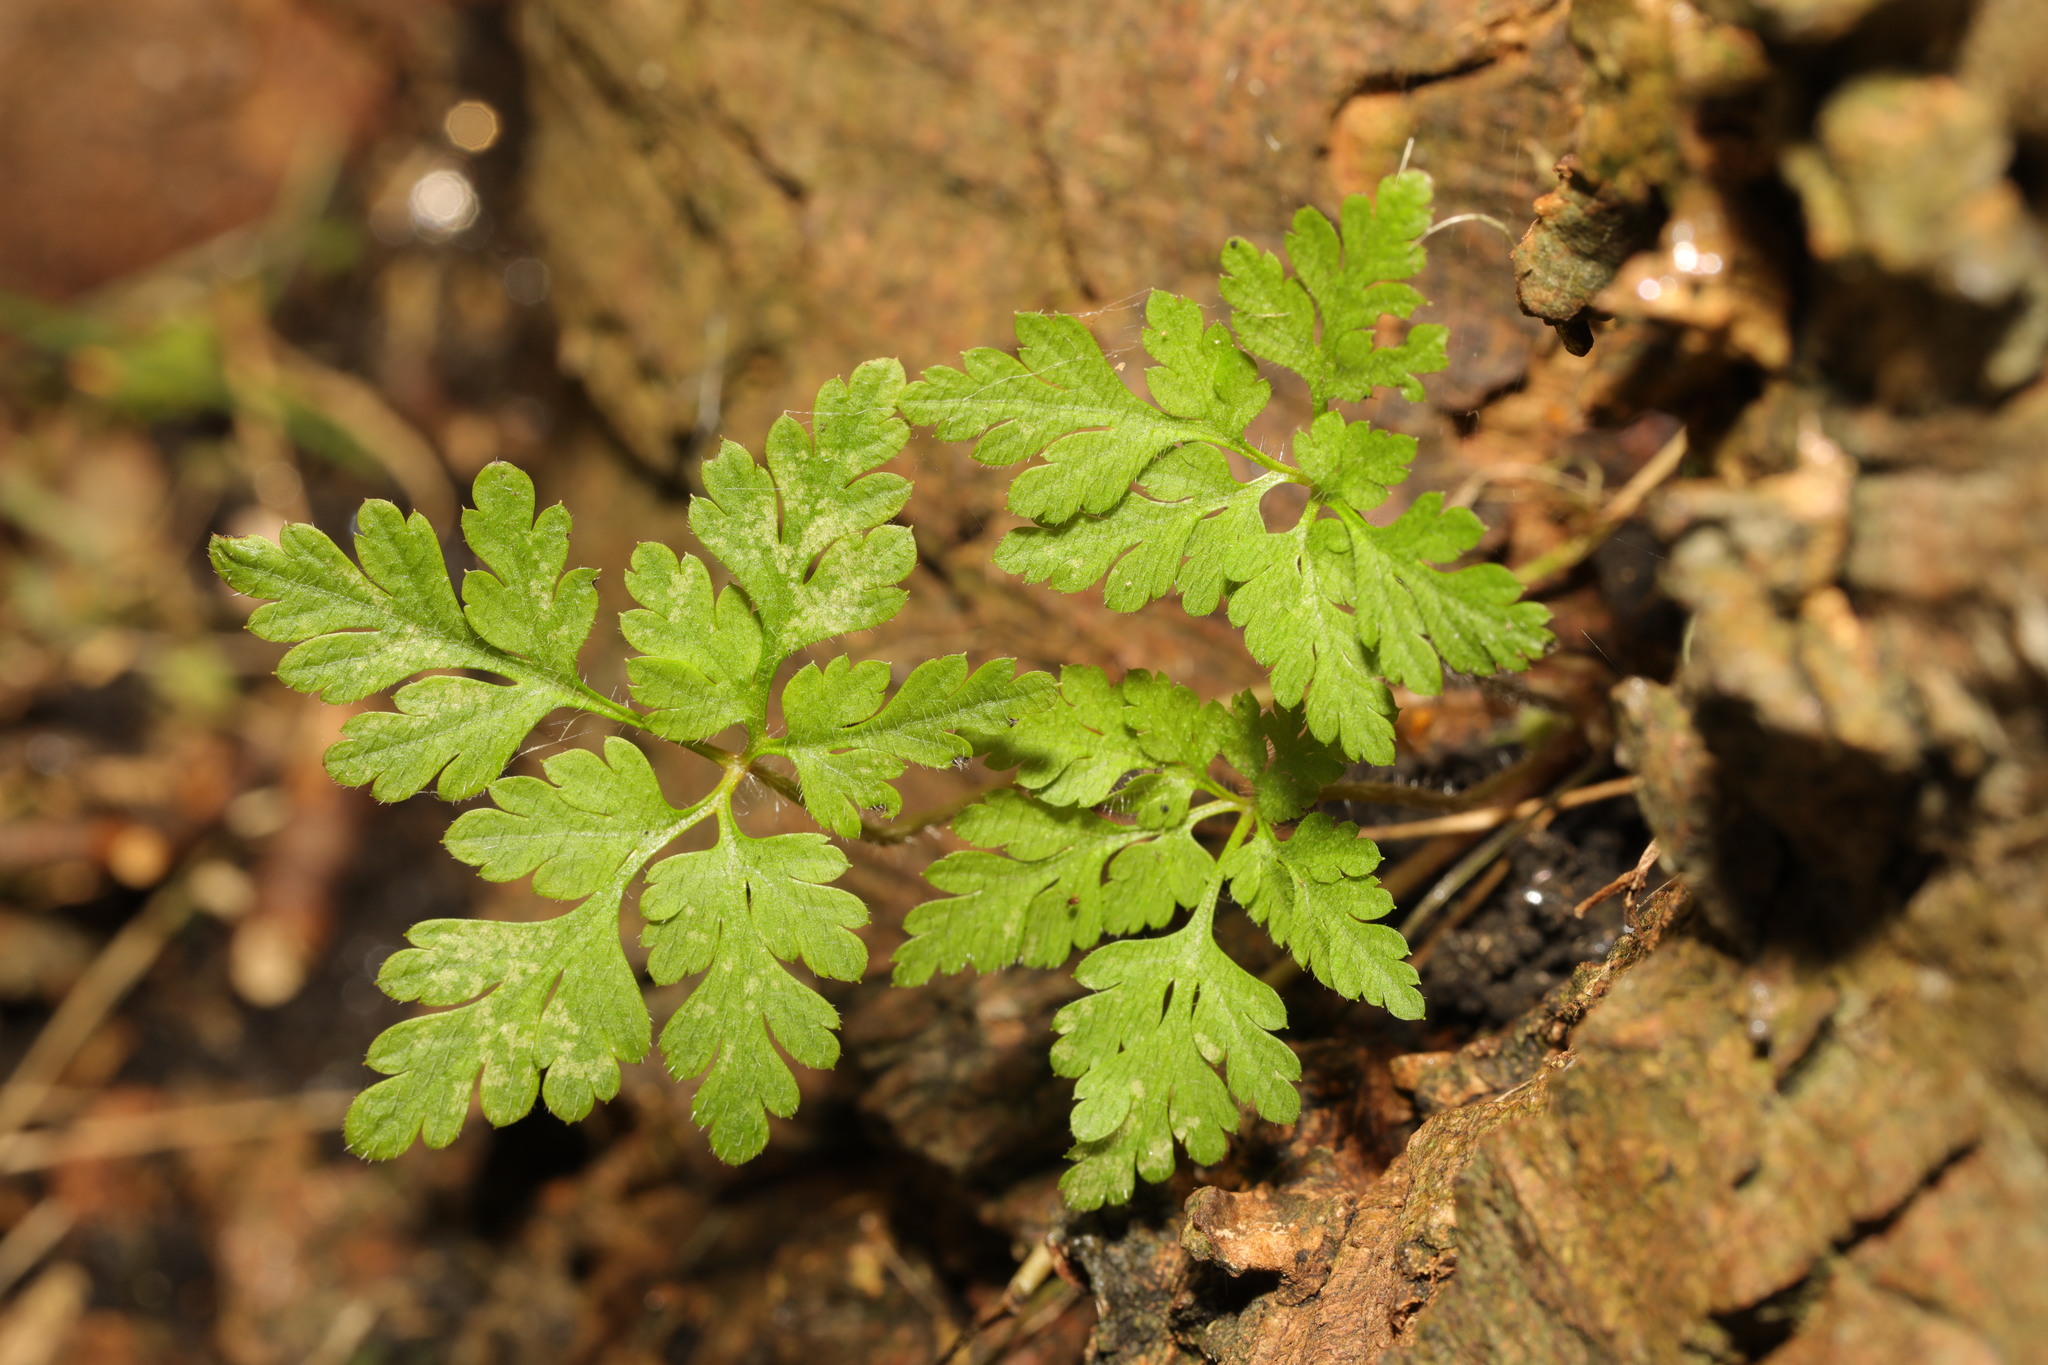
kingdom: Plantae
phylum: Tracheophyta
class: Magnoliopsida
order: Geraniales
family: Geraniaceae
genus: Geranium
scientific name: Geranium robertianum
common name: Herb-robert
